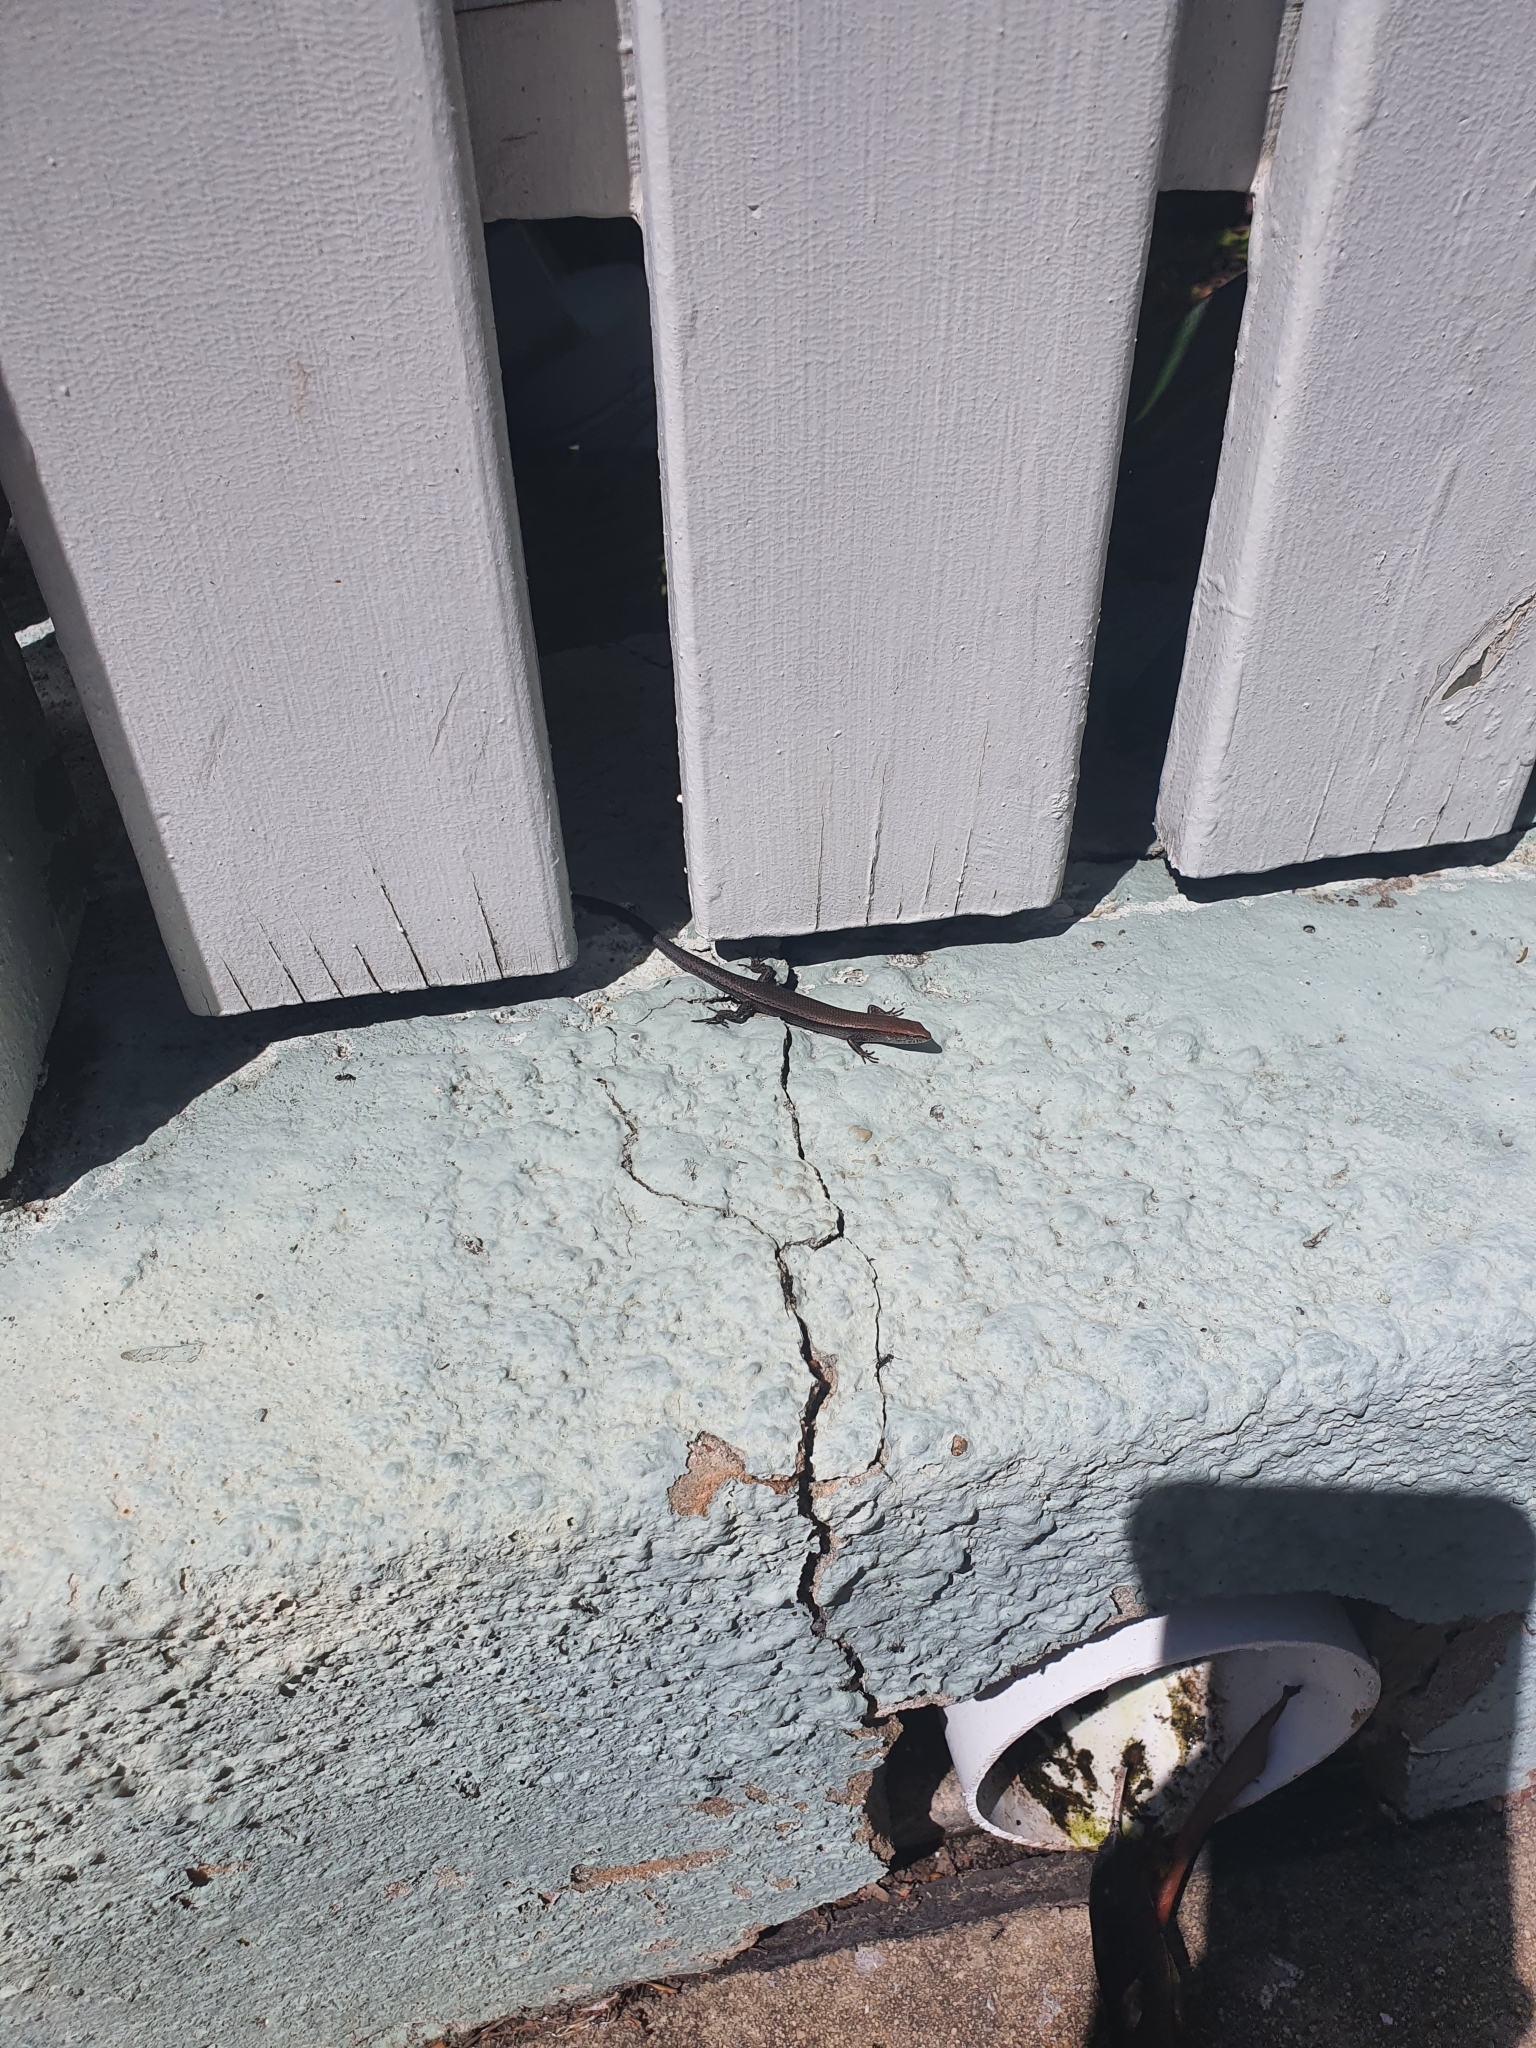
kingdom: Animalia
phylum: Chordata
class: Squamata
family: Scincidae
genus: Lampropholis
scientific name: Lampropholis delicata
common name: Plague skink
